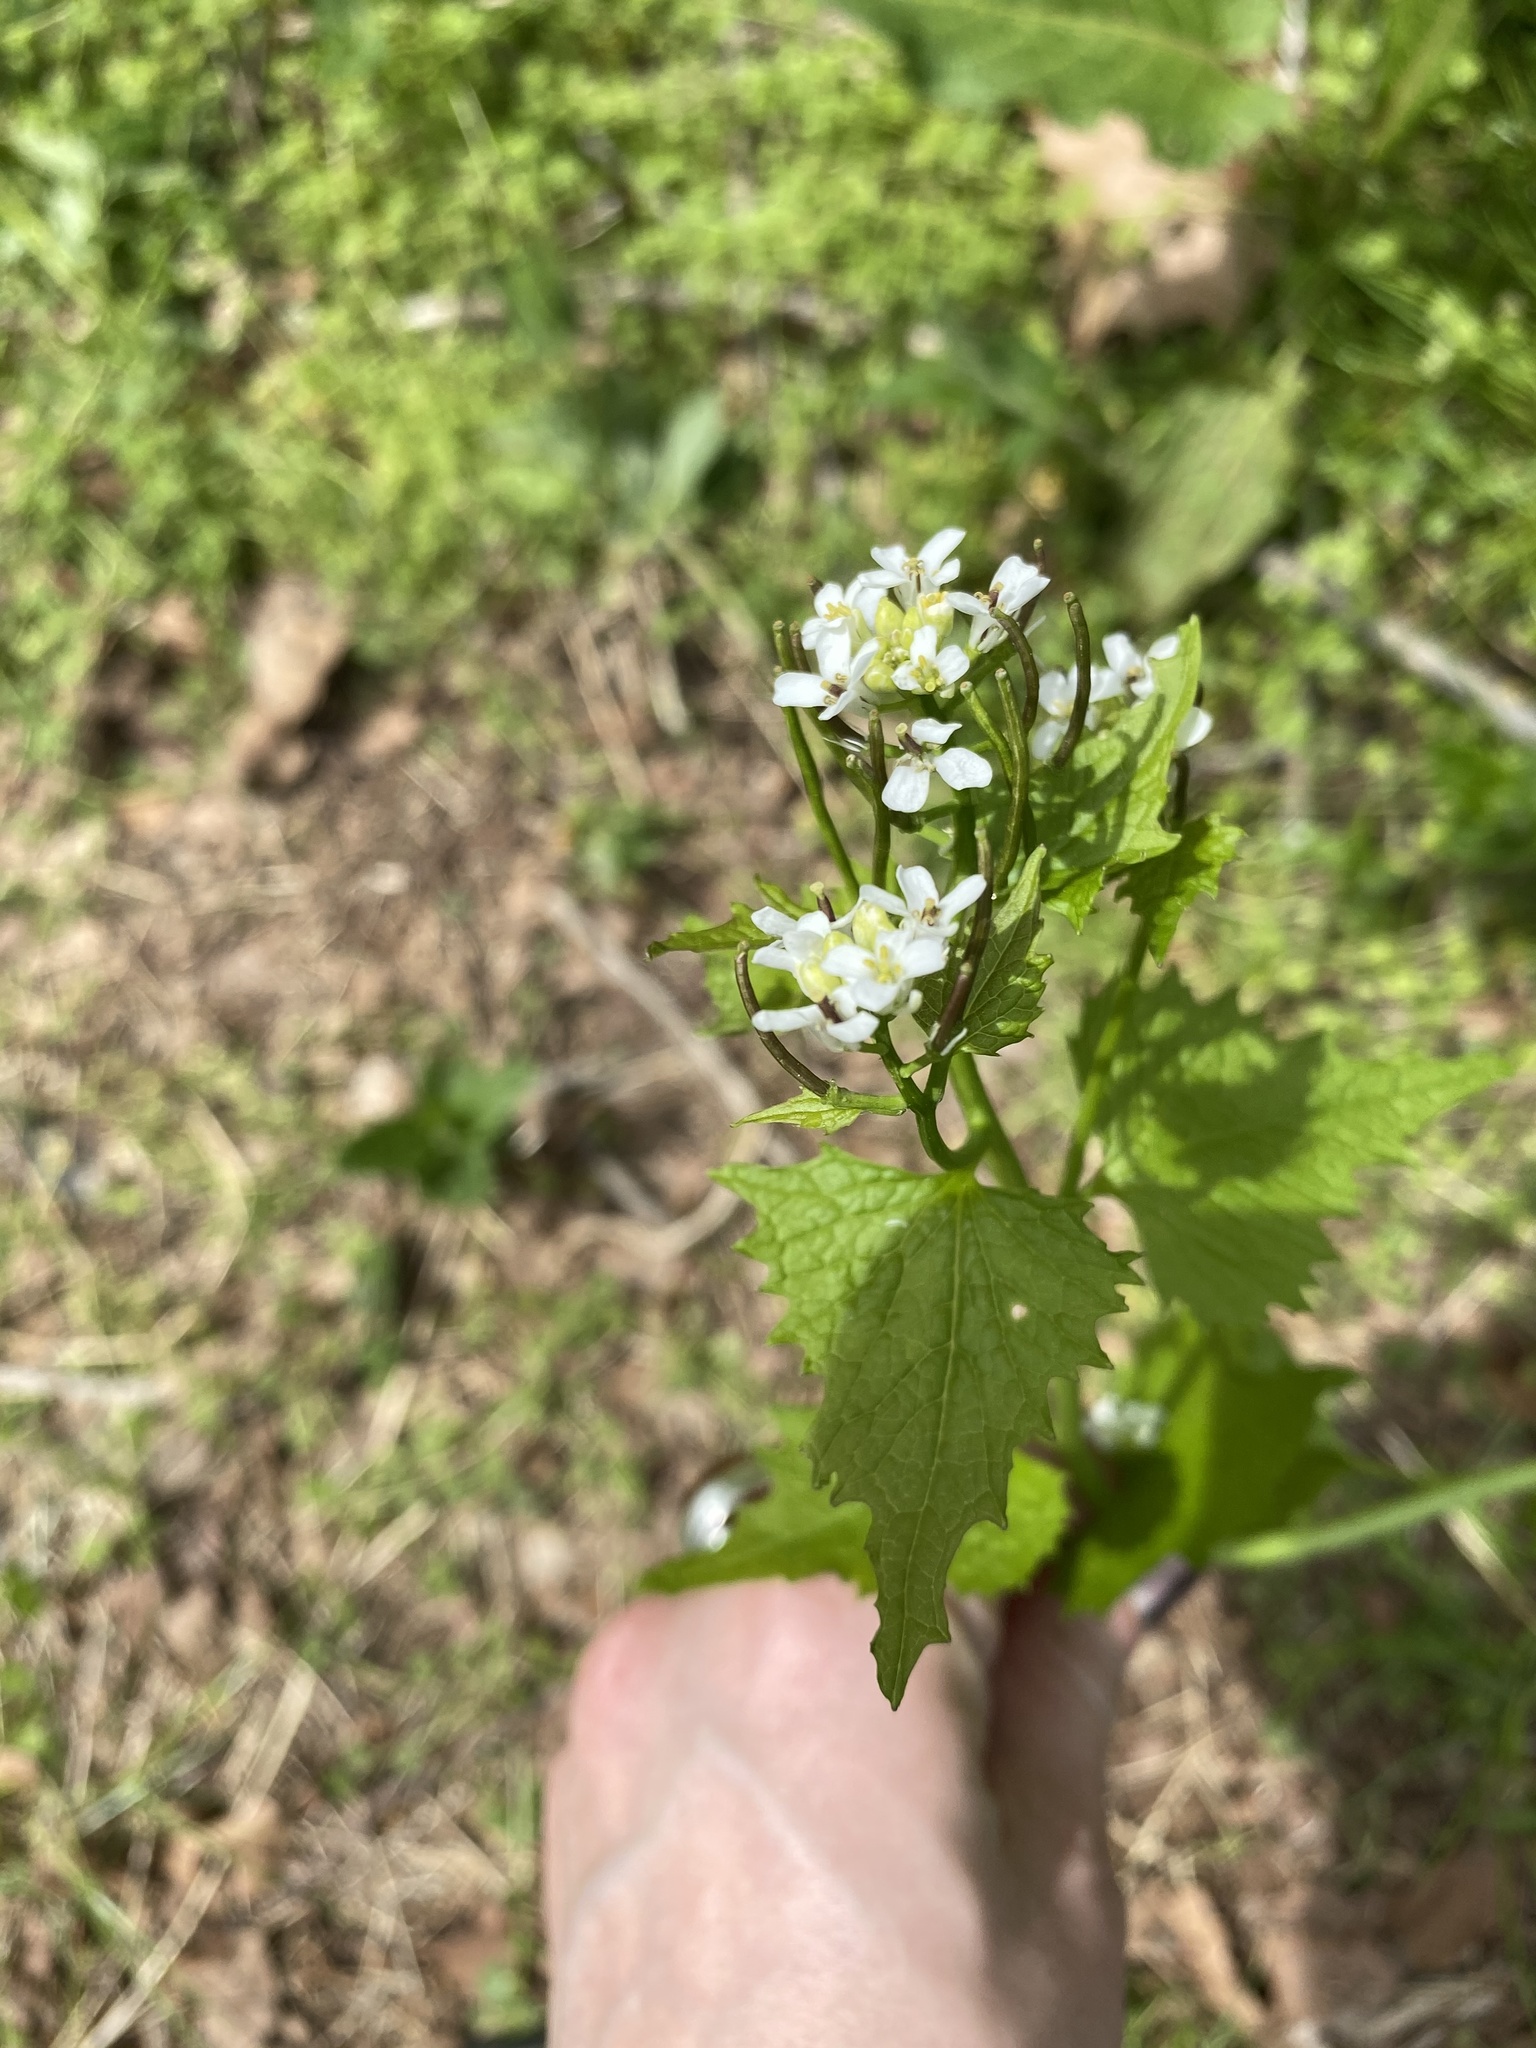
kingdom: Plantae
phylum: Tracheophyta
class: Magnoliopsida
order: Brassicales
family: Brassicaceae
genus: Alliaria
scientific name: Alliaria petiolata
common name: Garlic mustard
